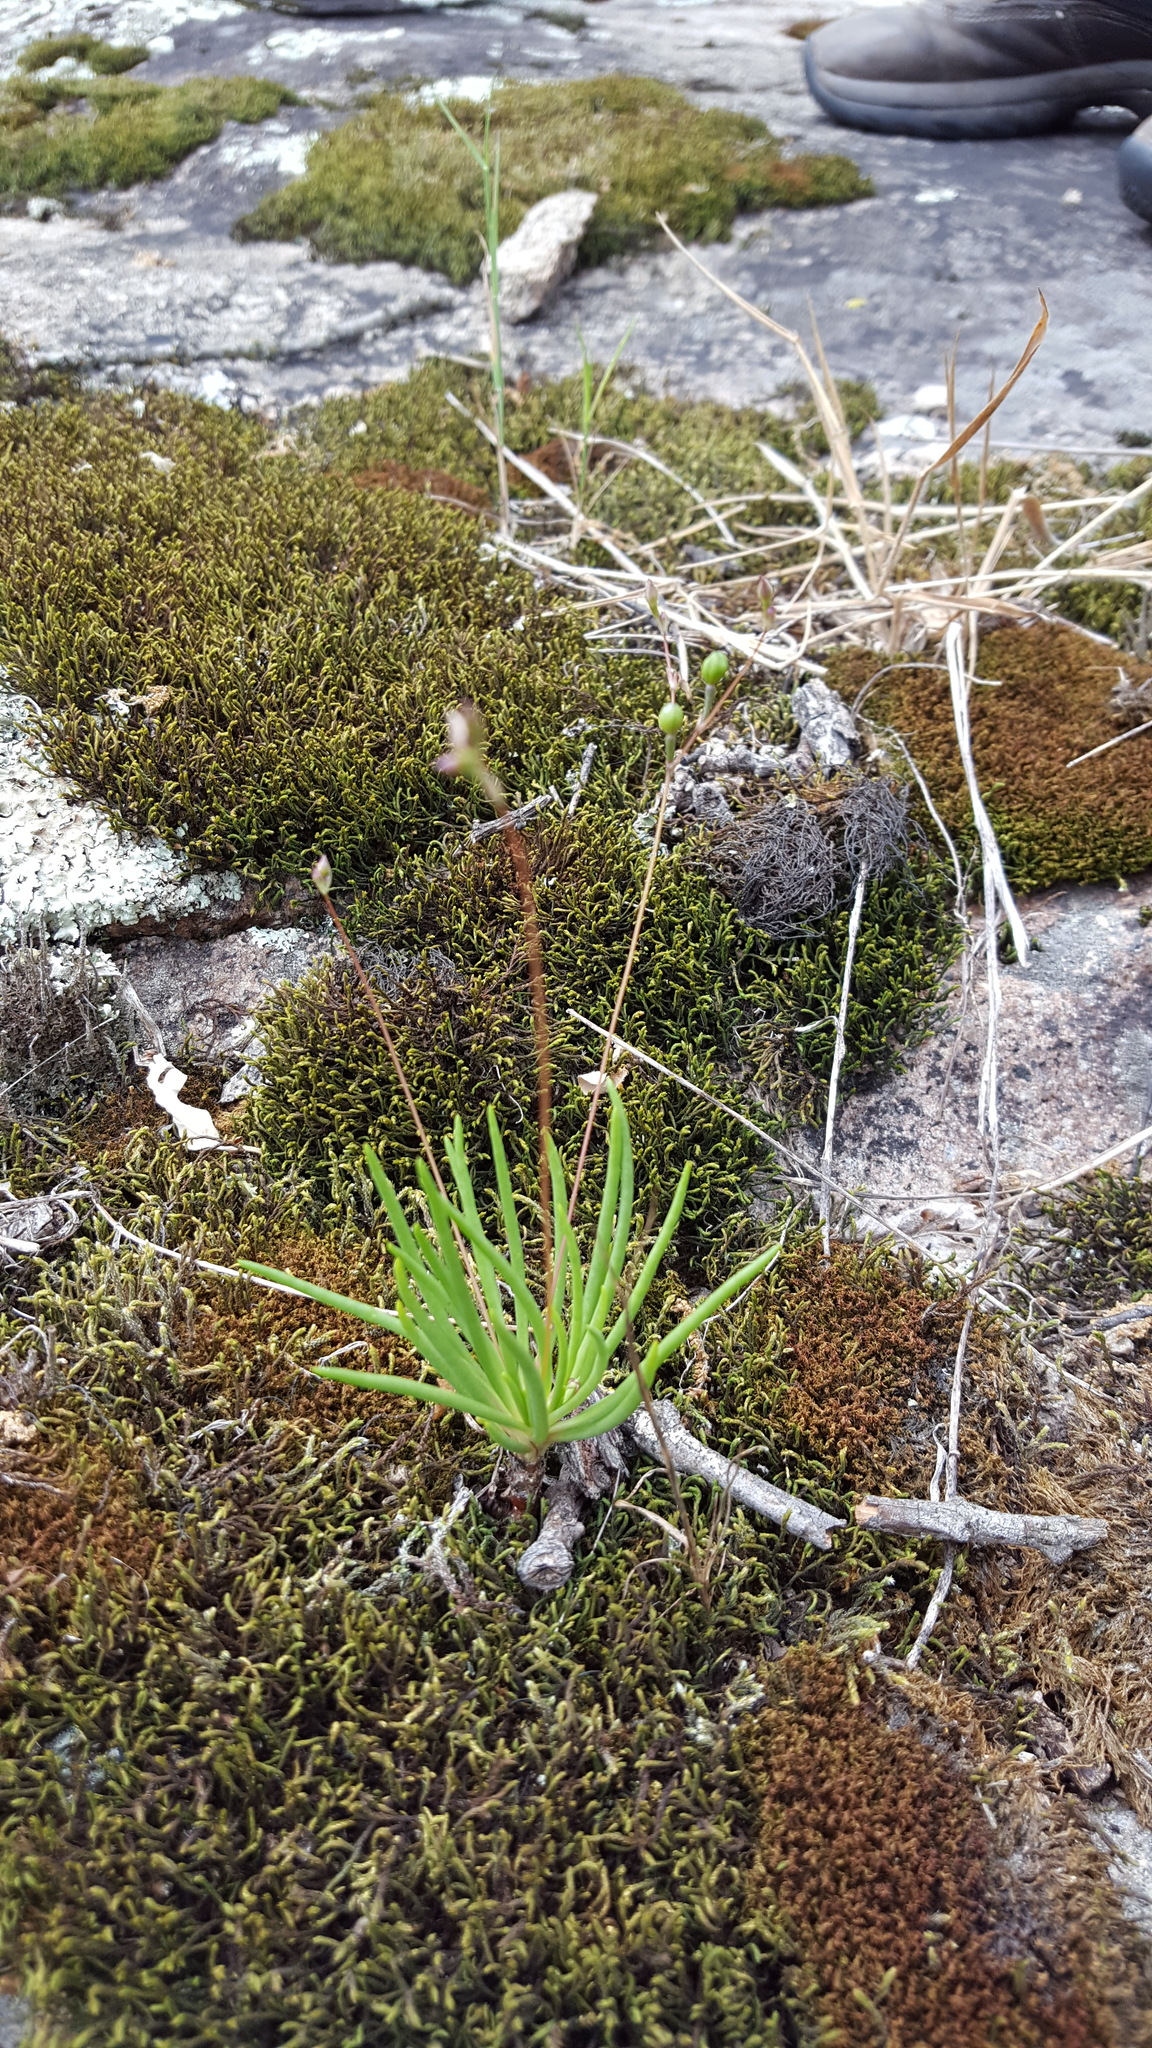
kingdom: Plantae
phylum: Tracheophyta
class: Magnoliopsida
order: Caryophyllales
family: Montiaceae
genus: Phemeranthus
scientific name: Phemeranthus parviflorus
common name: Sunbright
